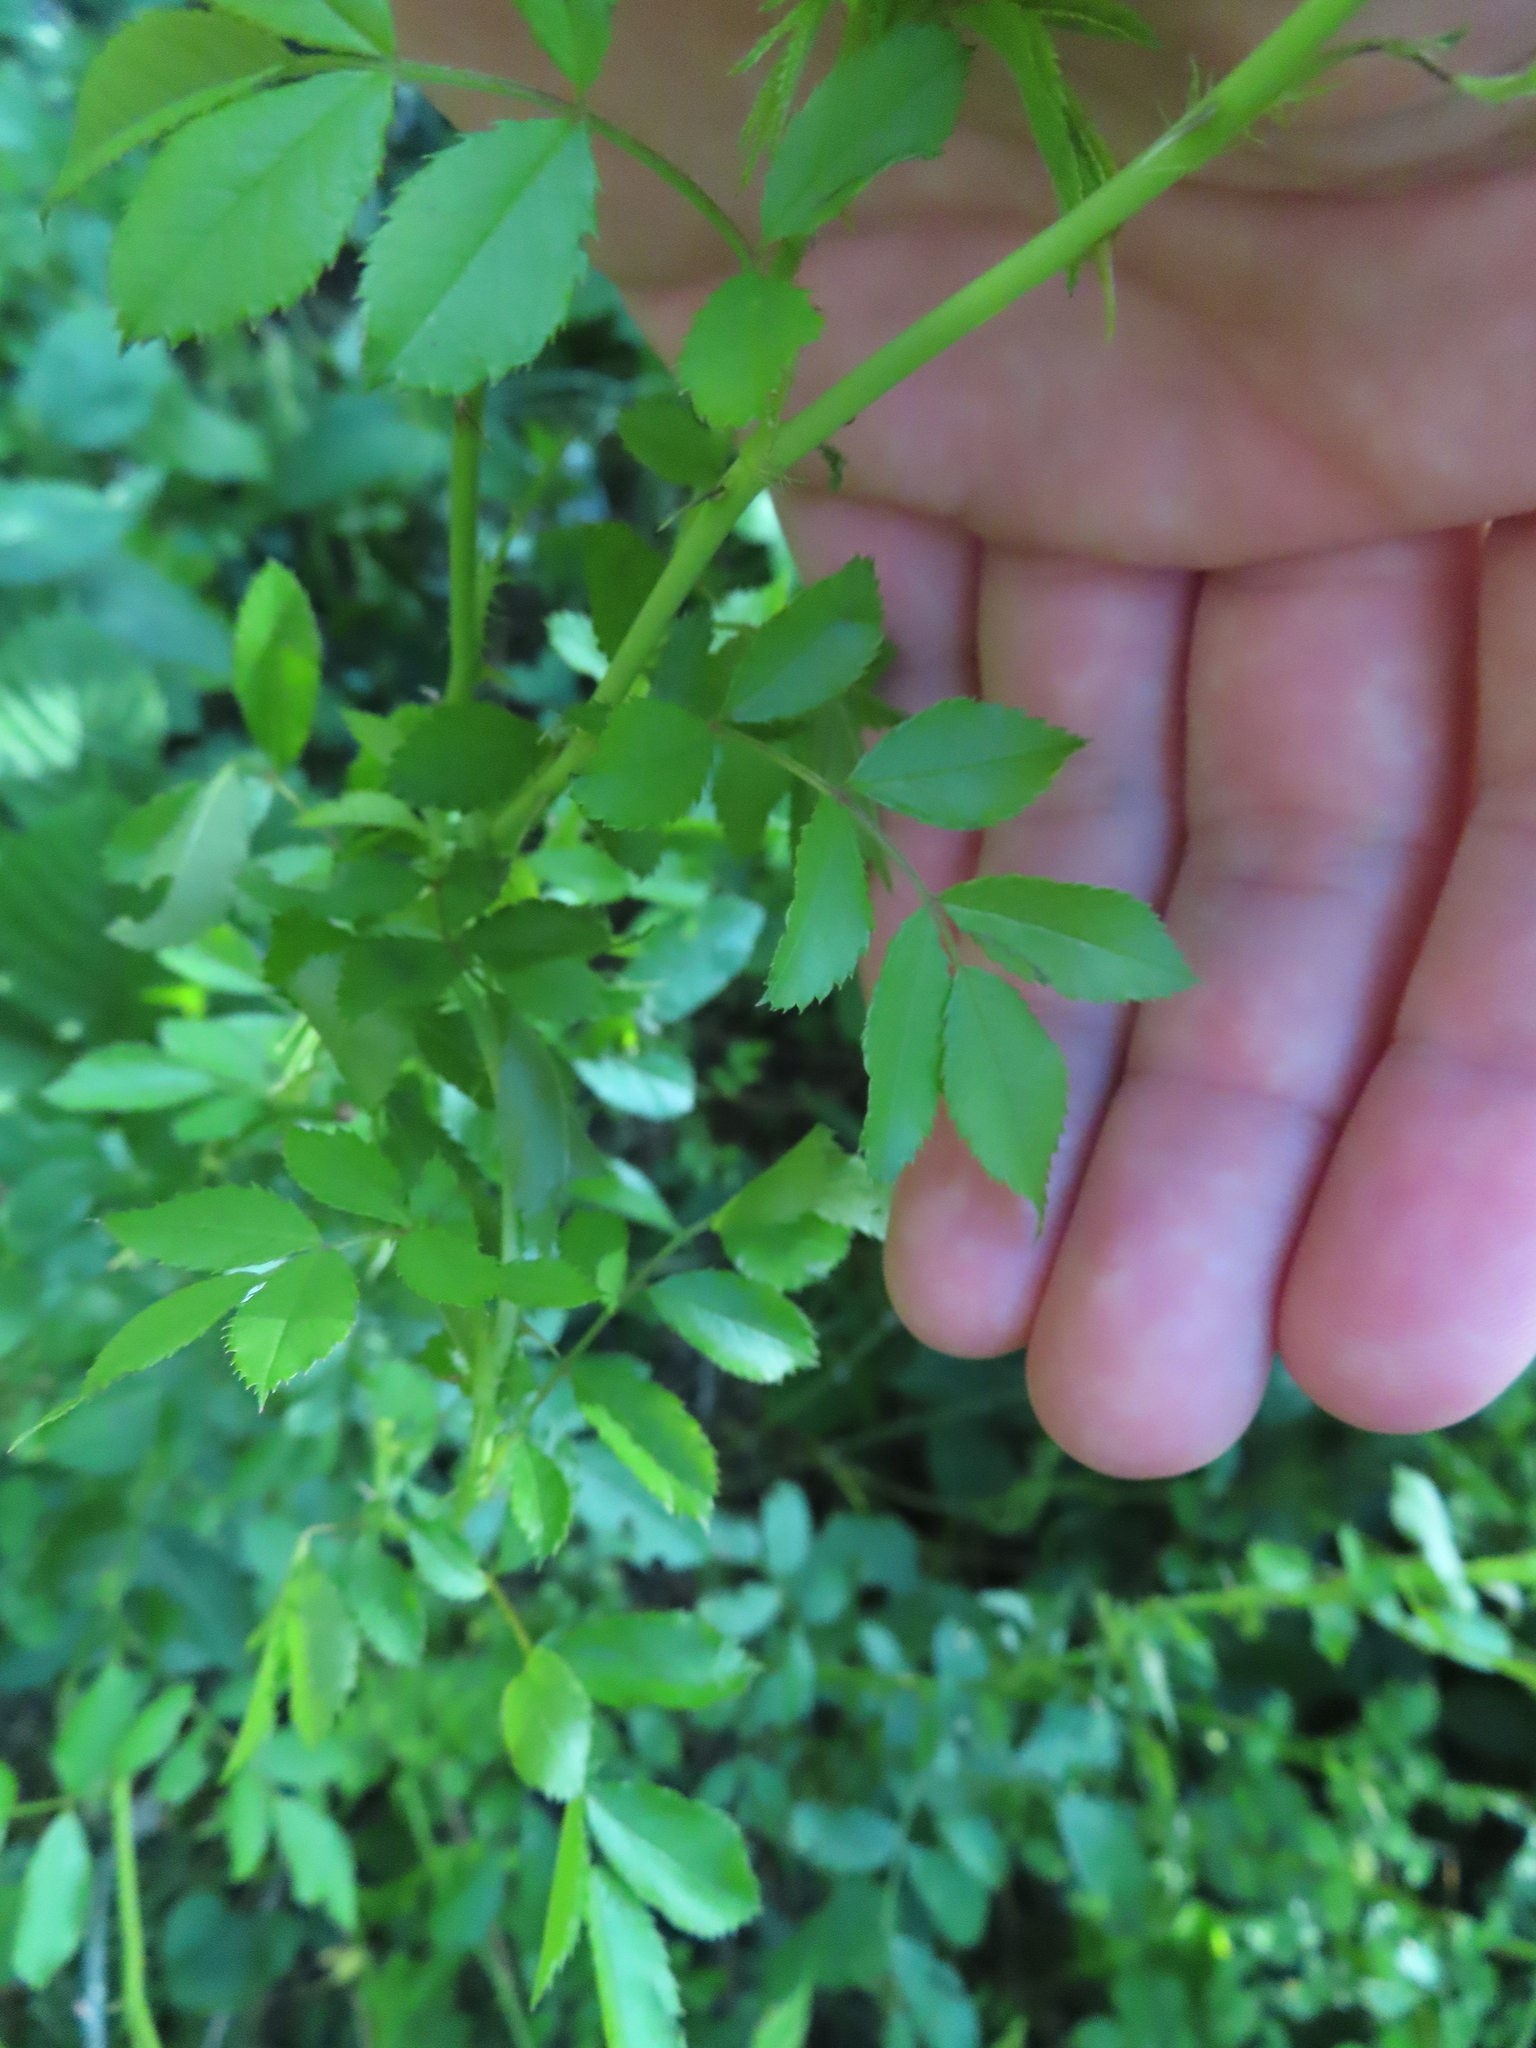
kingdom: Plantae
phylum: Tracheophyta
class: Magnoliopsida
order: Rosales
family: Rosaceae
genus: Rosa
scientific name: Rosa multiflora
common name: Multiflora rose
